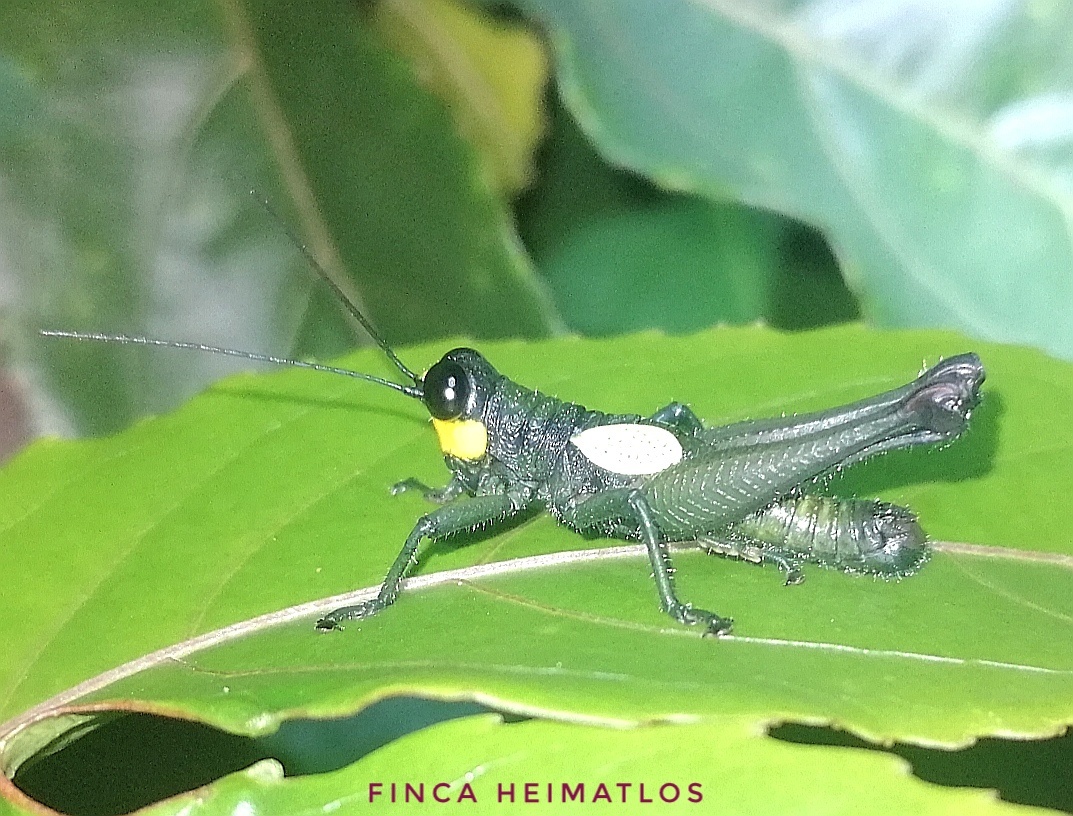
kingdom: Animalia
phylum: Arthropoda
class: Insecta
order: Orthoptera
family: Acrididae
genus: Eulampiacris
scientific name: Eulampiacris leucoptera
